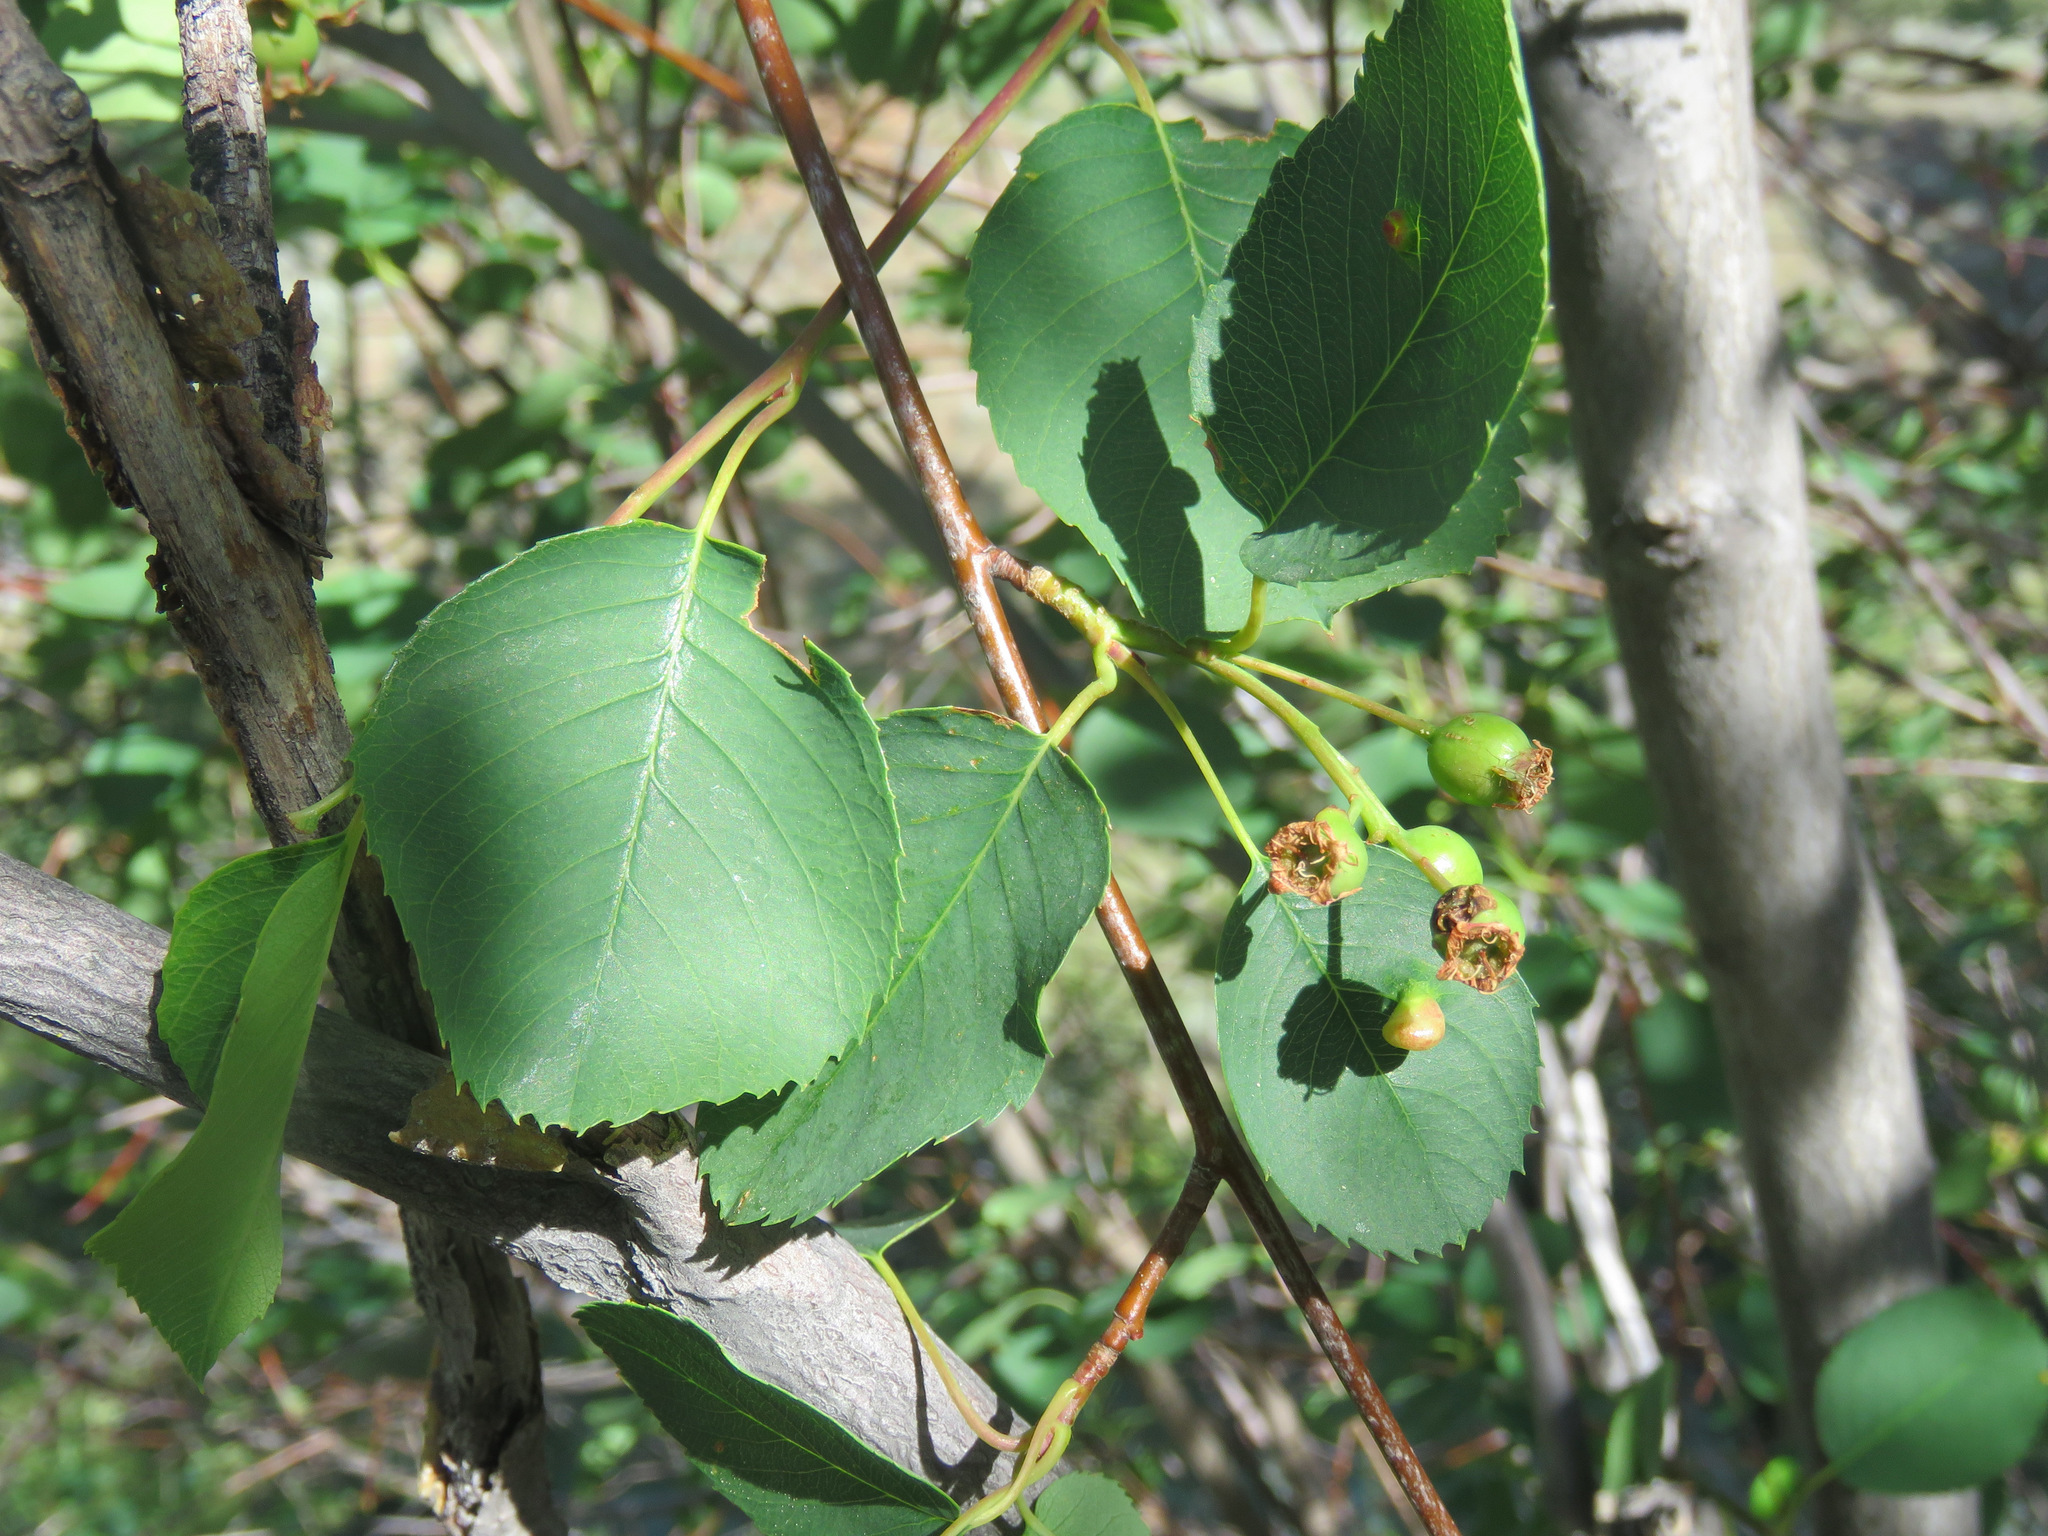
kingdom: Plantae
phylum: Tracheophyta
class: Magnoliopsida
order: Rosales
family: Rosaceae
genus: Amelanchier
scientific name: Amelanchier alnifolia
